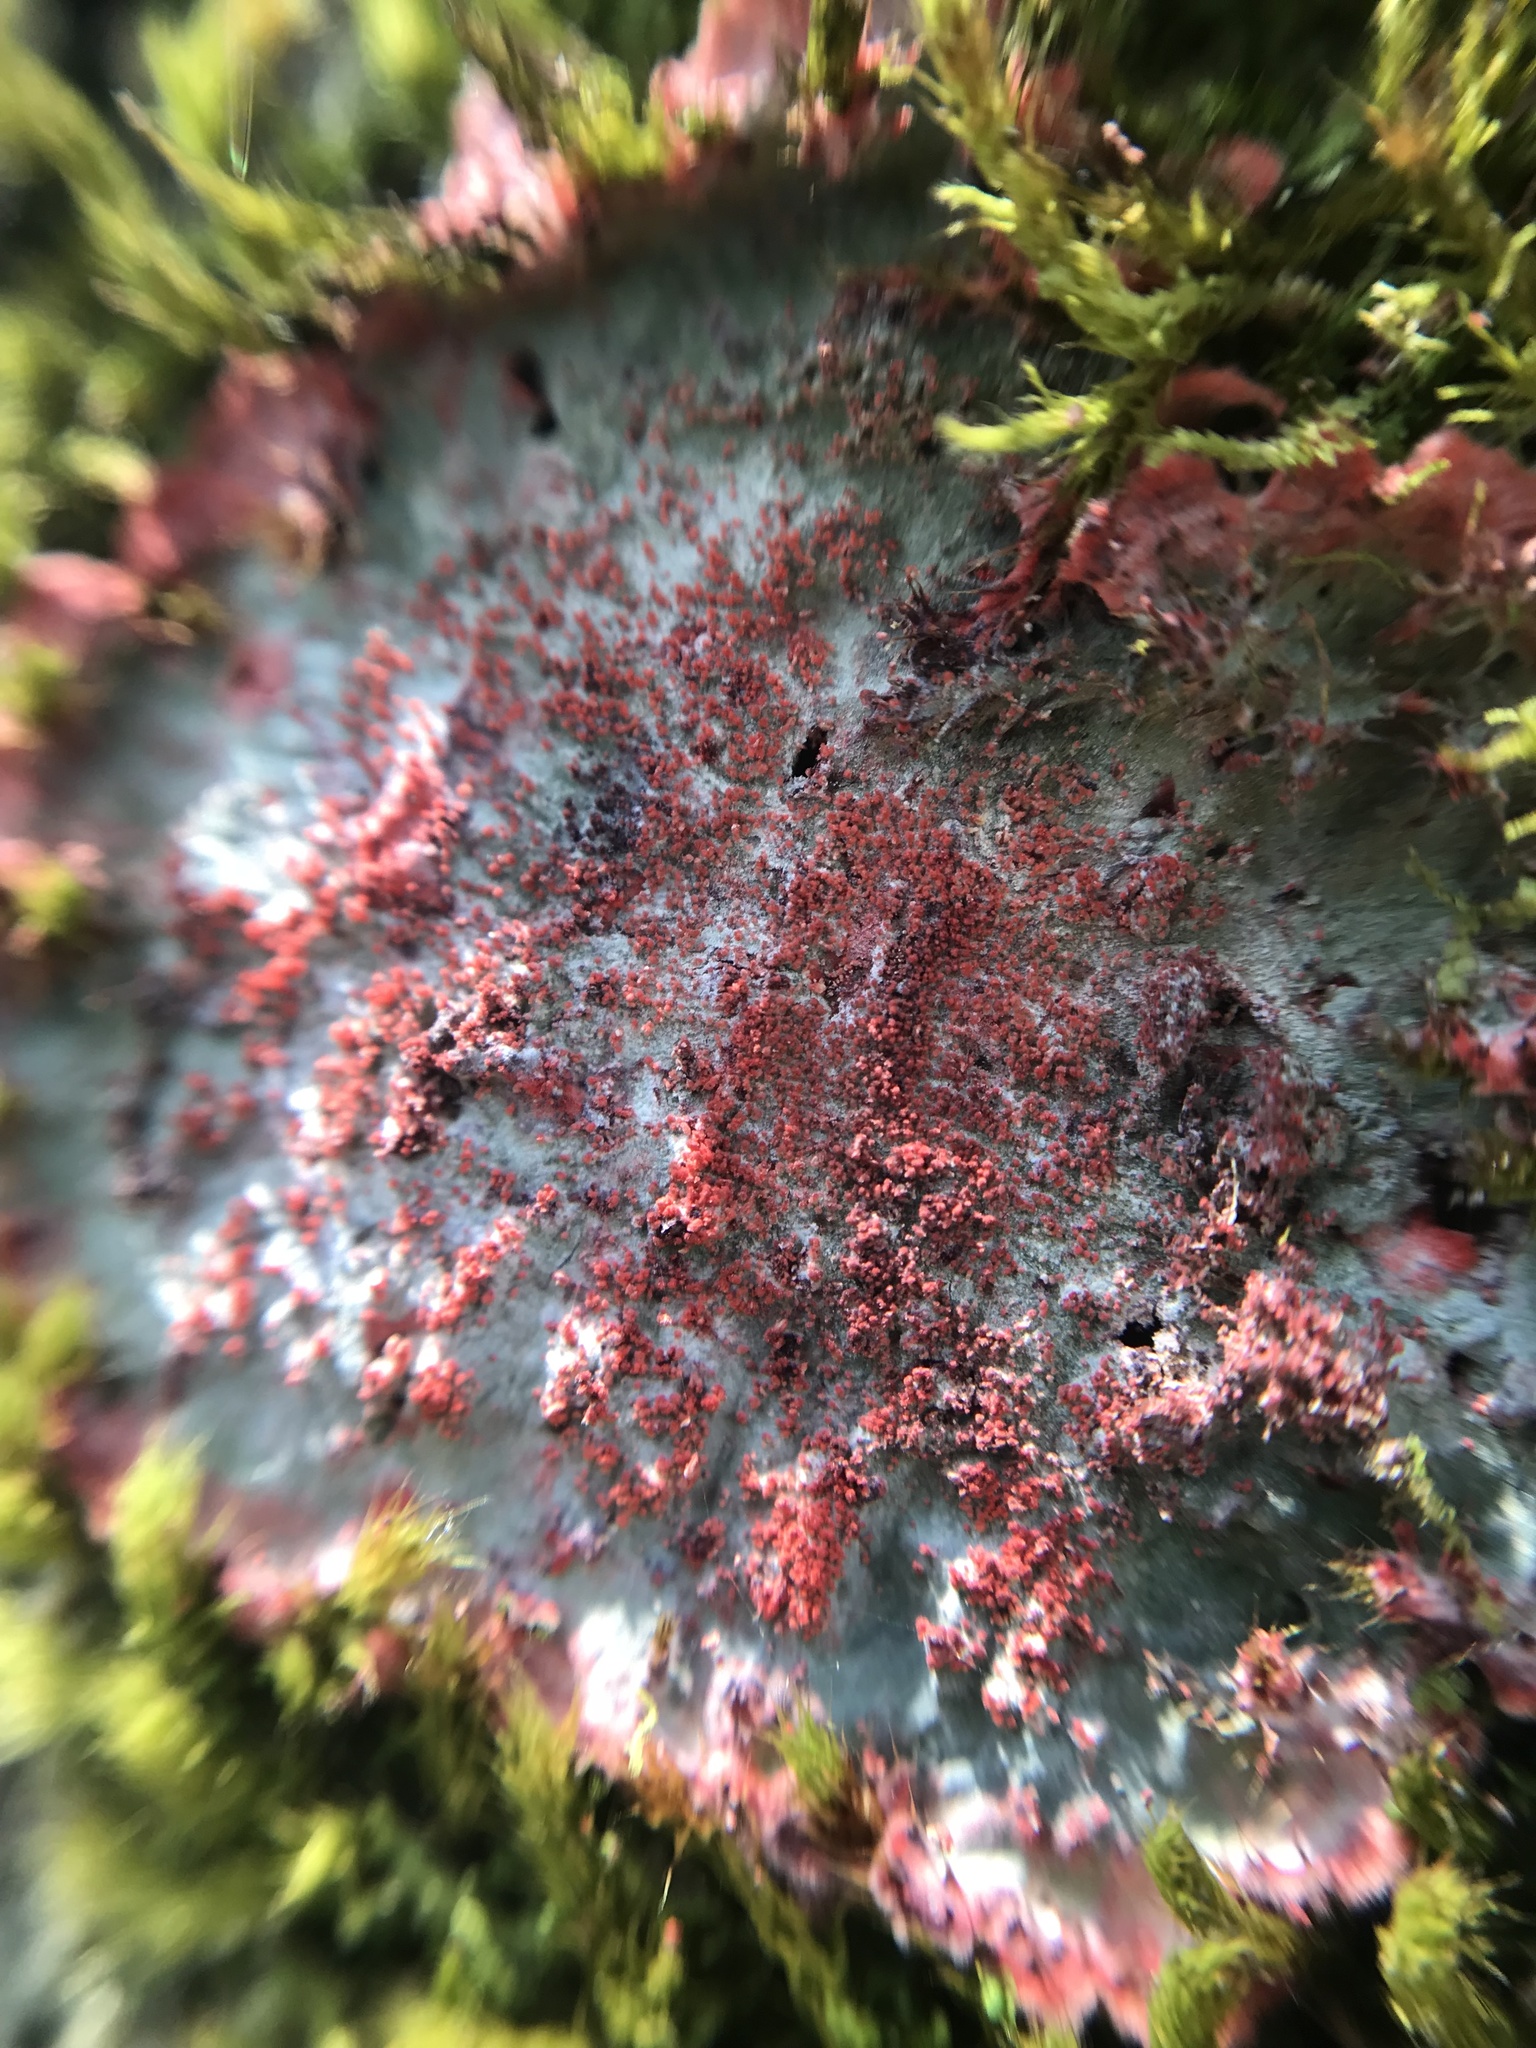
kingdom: Fungi
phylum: Ascomycota
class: Arthoniomycetes
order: Arthoniales
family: Arthoniaceae
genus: Herpothallon
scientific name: Herpothallon rubrocinctum
